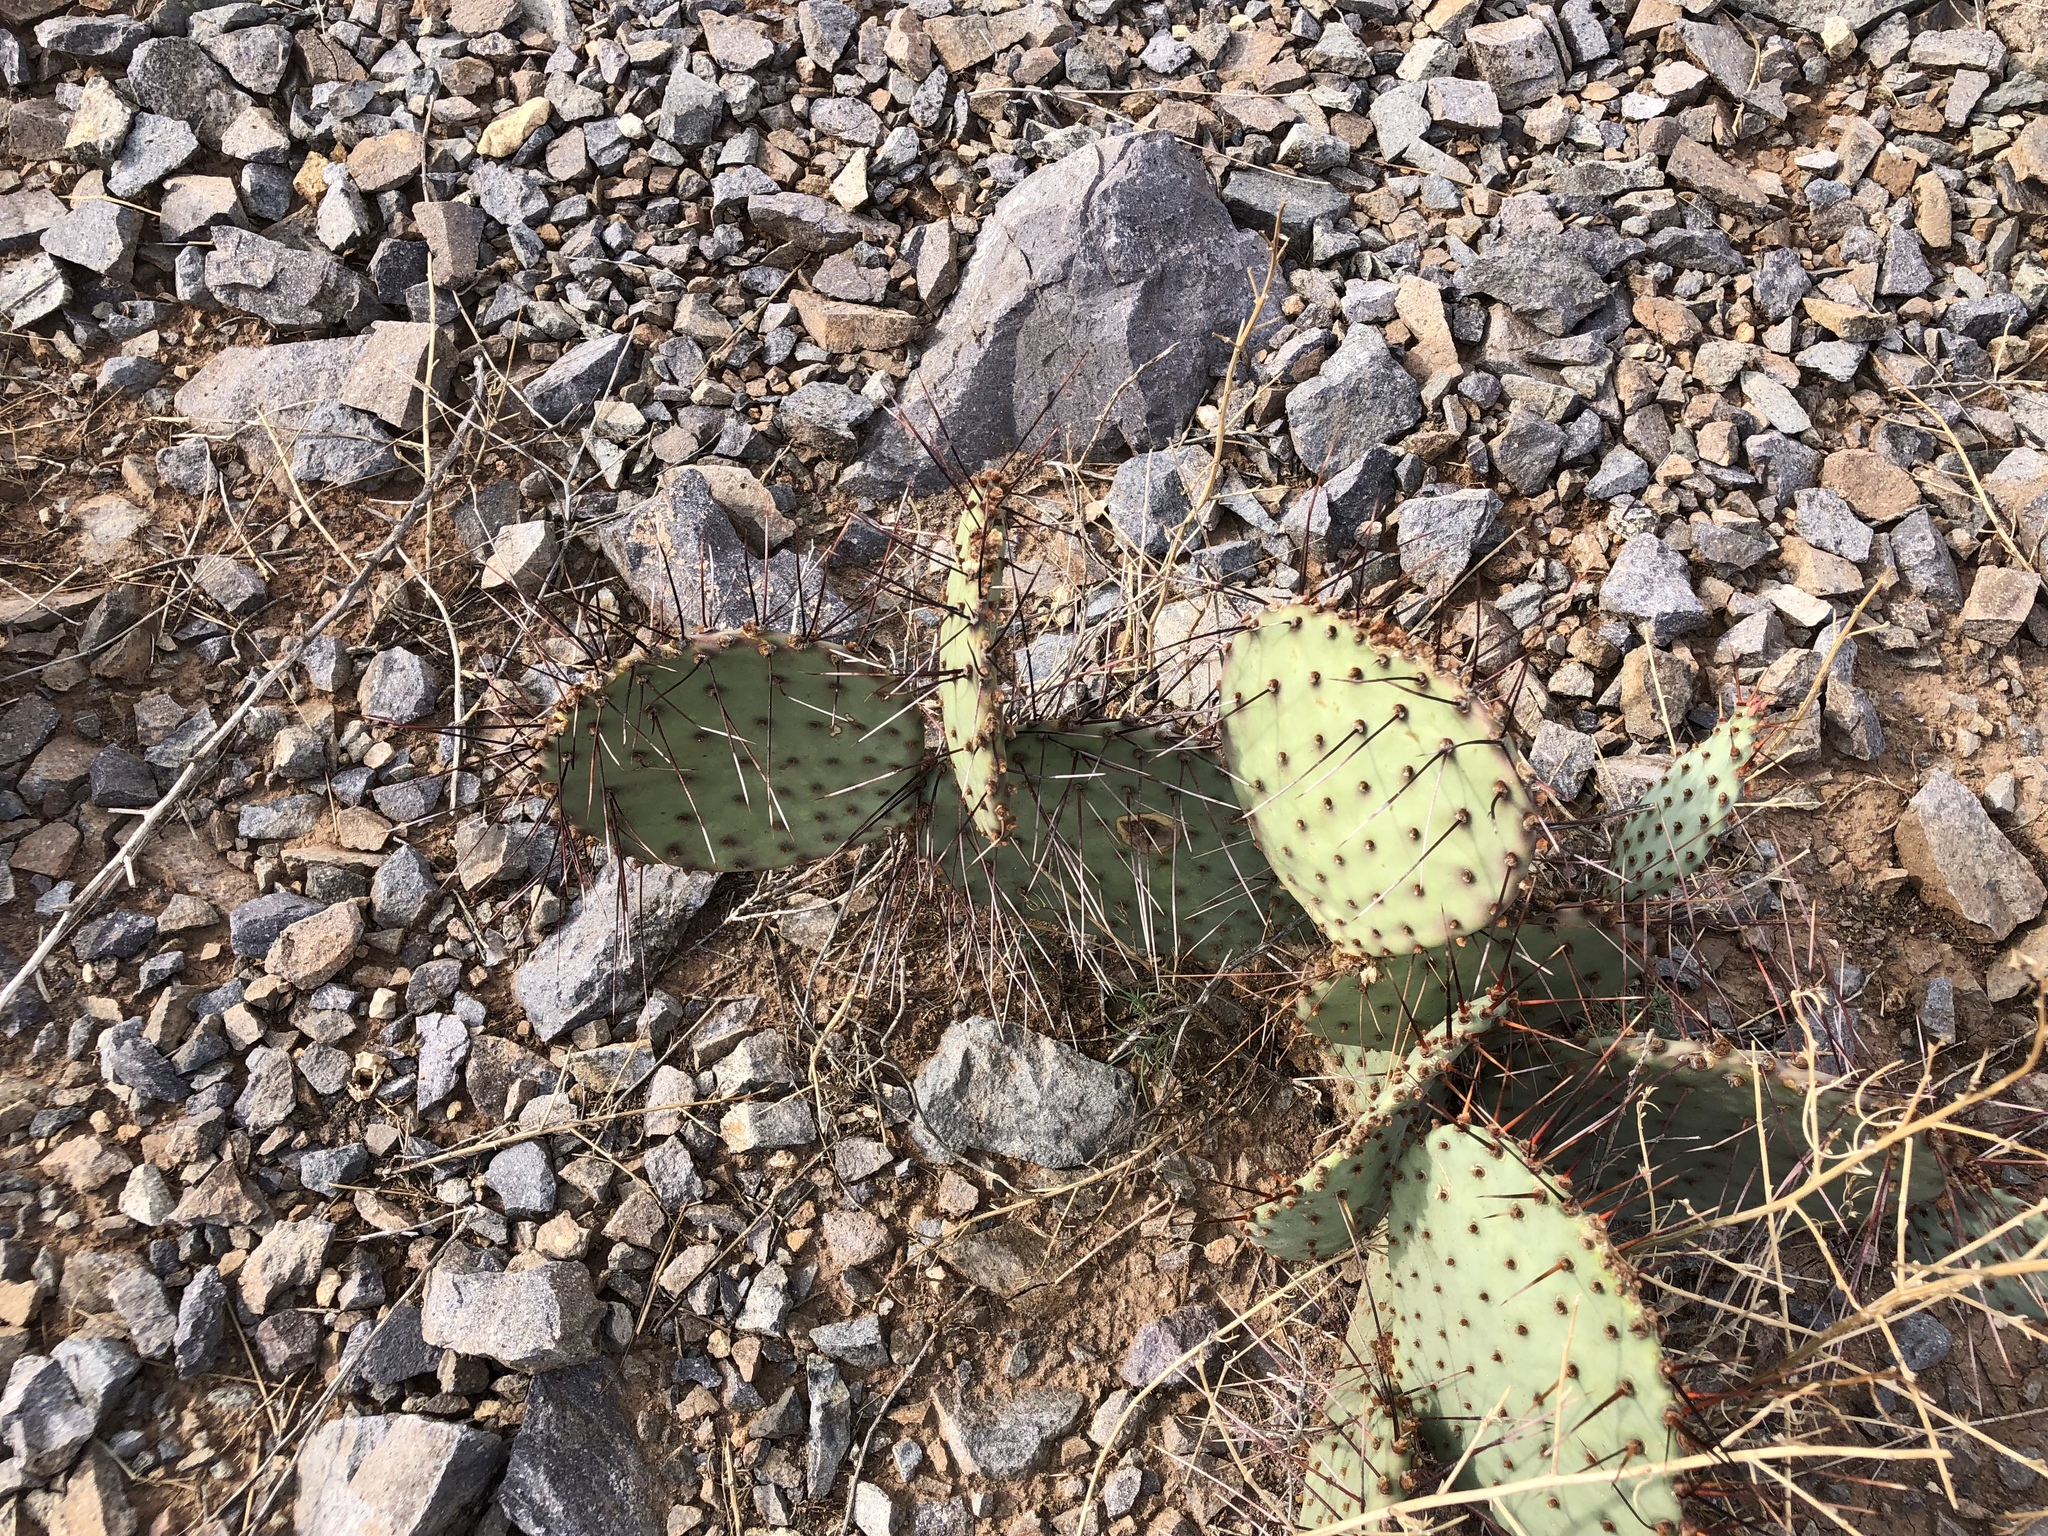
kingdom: Plantae
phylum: Tracheophyta
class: Magnoliopsida
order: Caryophyllales
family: Cactaceae
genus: Opuntia
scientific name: Opuntia macrocentra
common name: Purple prickly-pear
